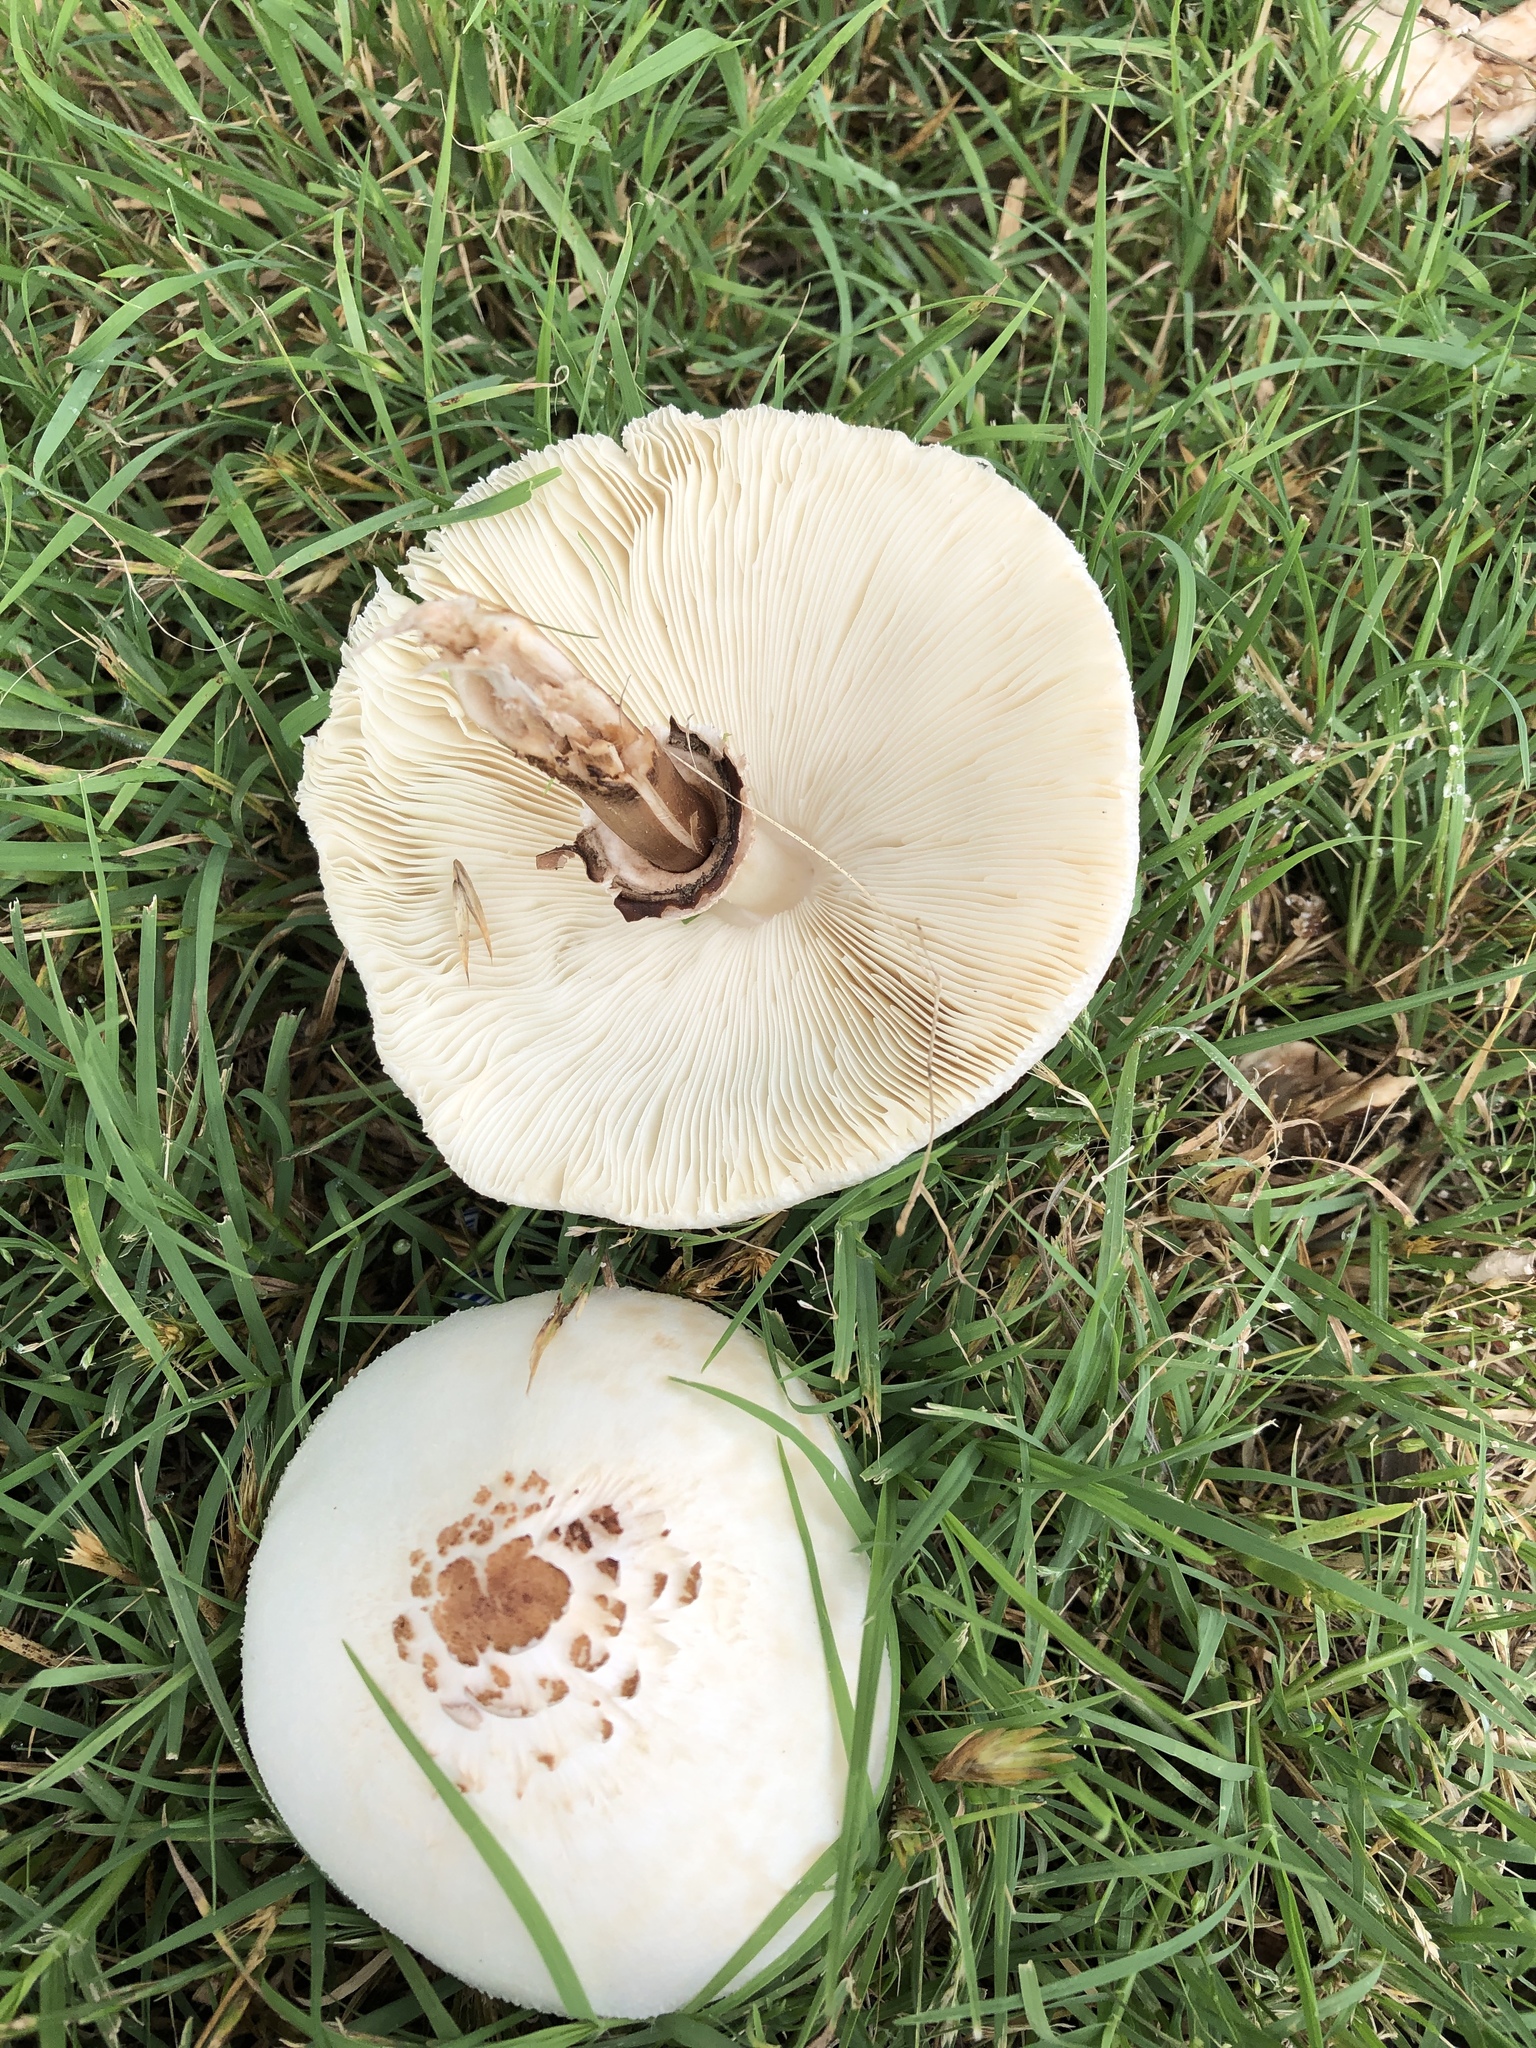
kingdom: Fungi
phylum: Basidiomycota
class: Agaricomycetes
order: Agaricales
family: Agaricaceae
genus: Chlorophyllum
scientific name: Chlorophyllum molybdites
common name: False parasol
